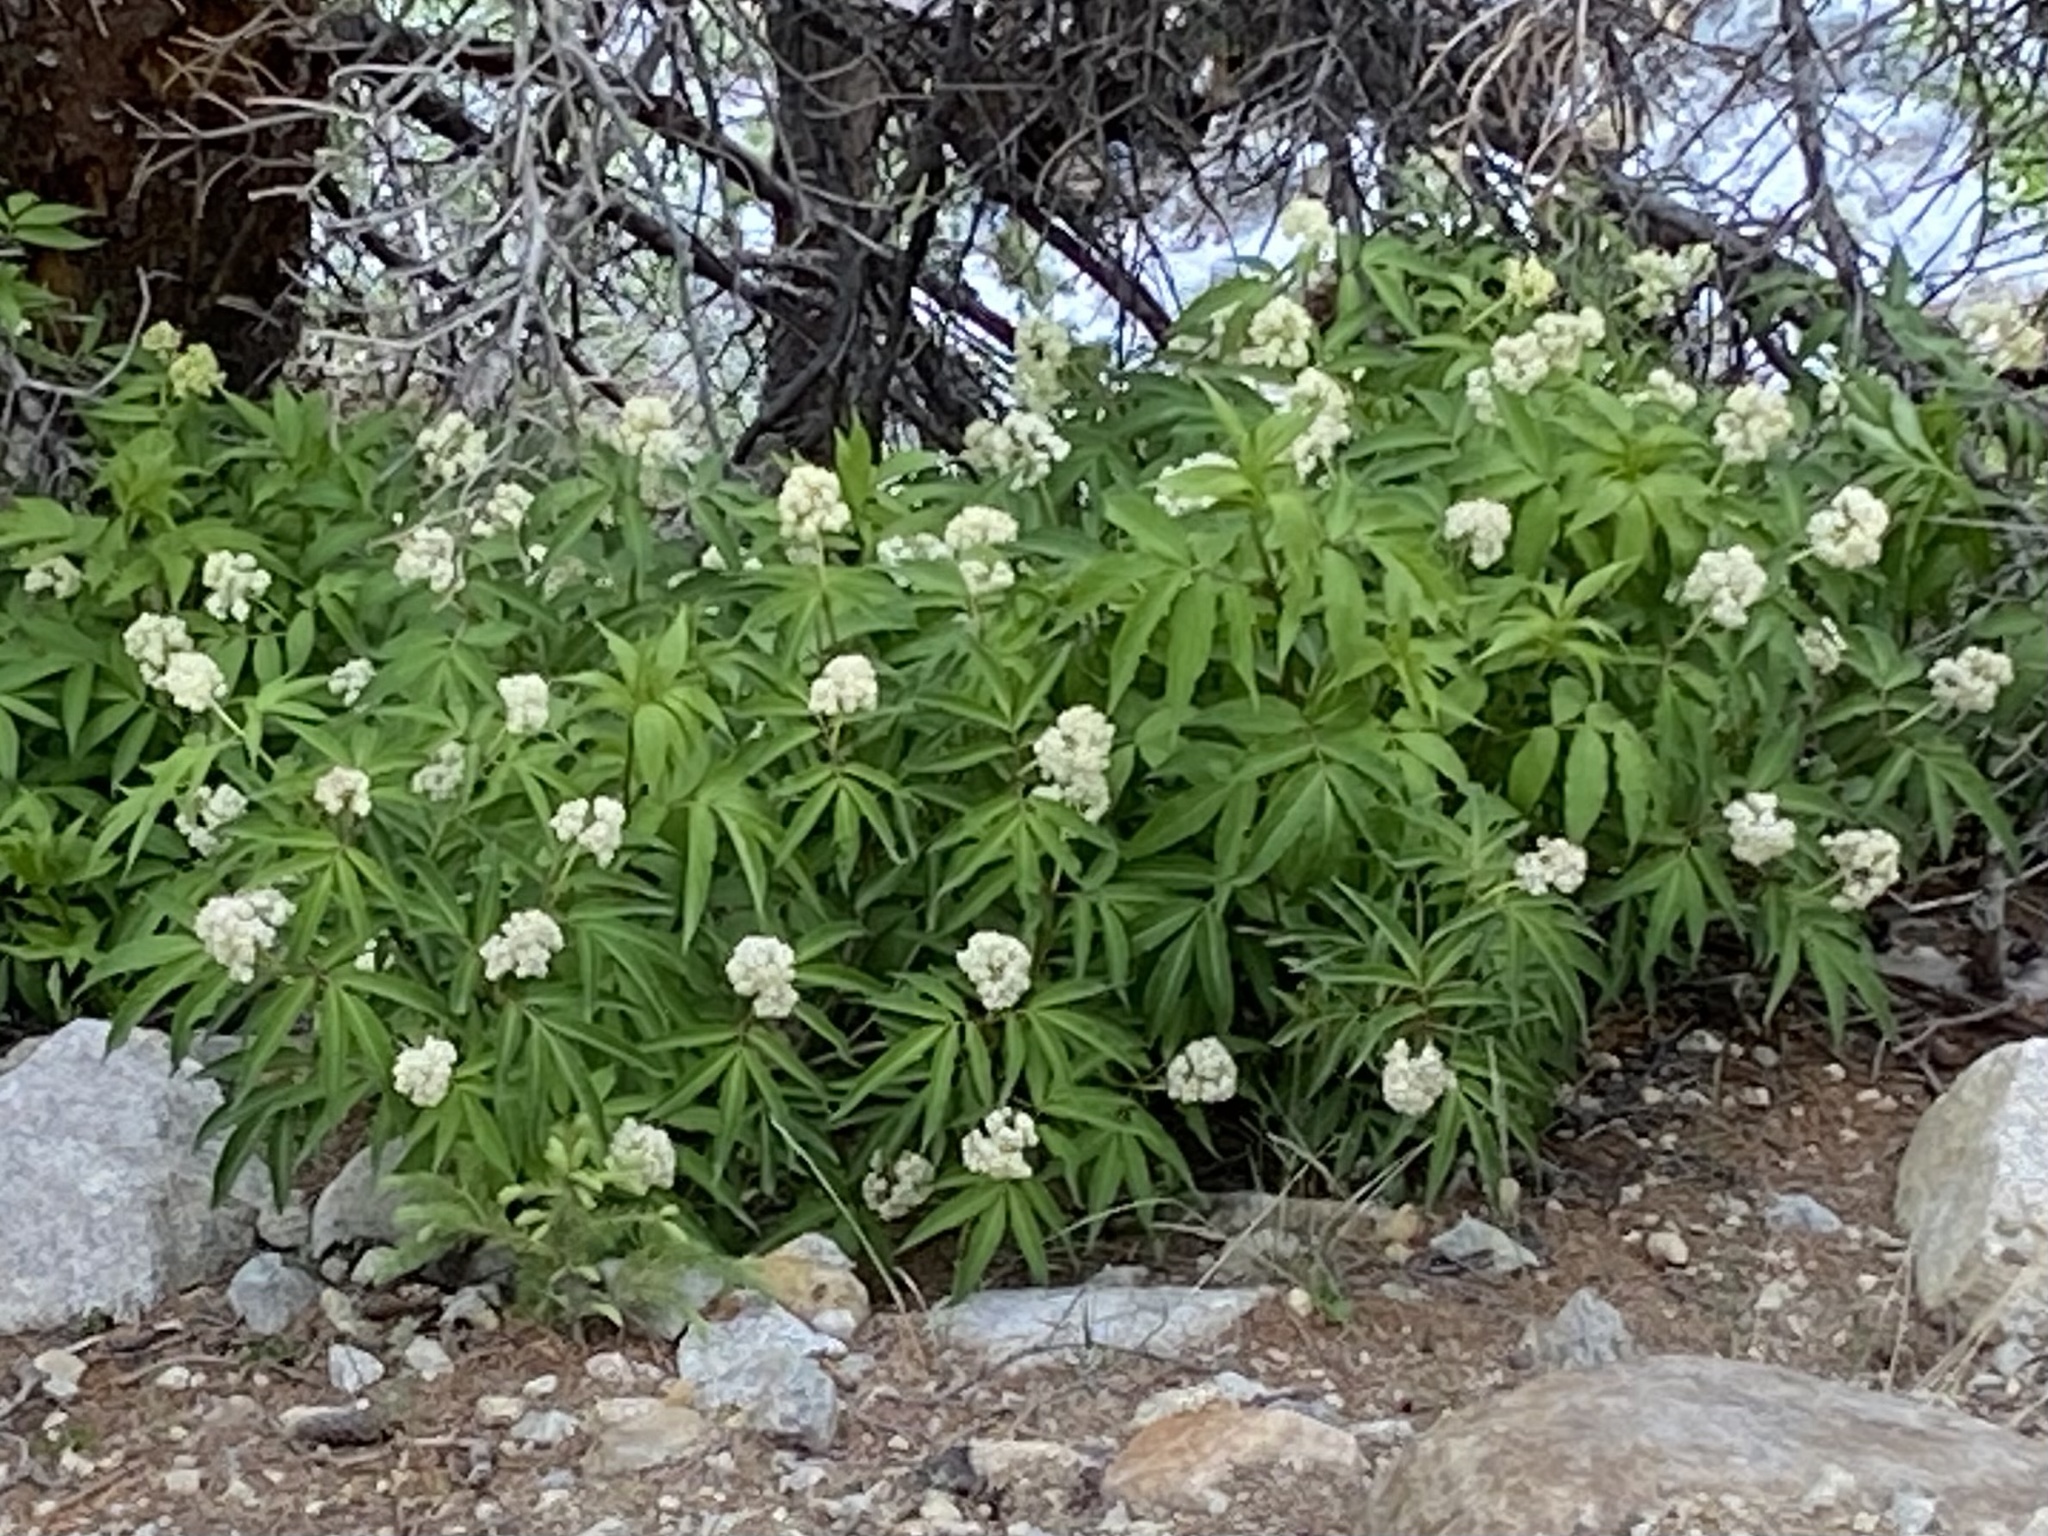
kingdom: Plantae
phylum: Tracheophyta
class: Magnoliopsida
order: Dipsacales
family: Viburnaceae
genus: Sambucus
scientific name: Sambucus racemosa
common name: Red-berried elder
